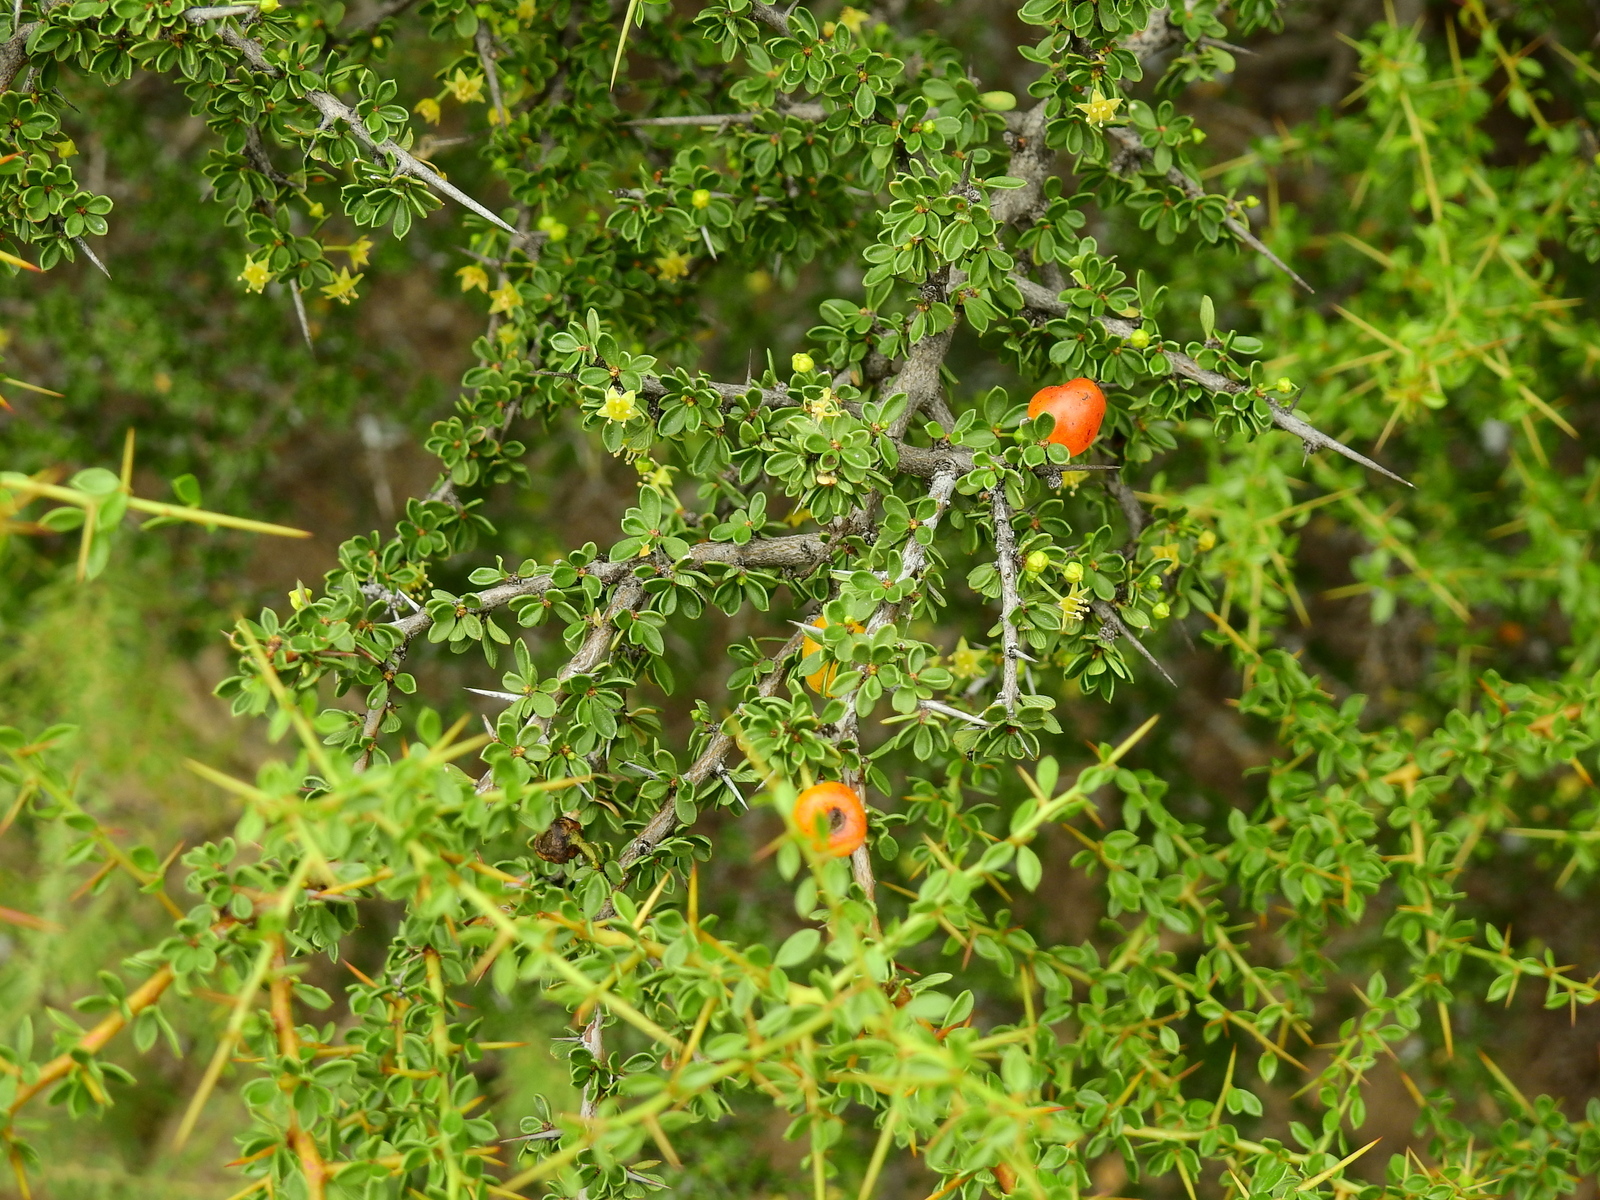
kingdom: Plantae
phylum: Tracheophyta
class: Magnoliopsida
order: Rosales
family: Rhamnaceae
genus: Condalia
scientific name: Condalia microphylla
